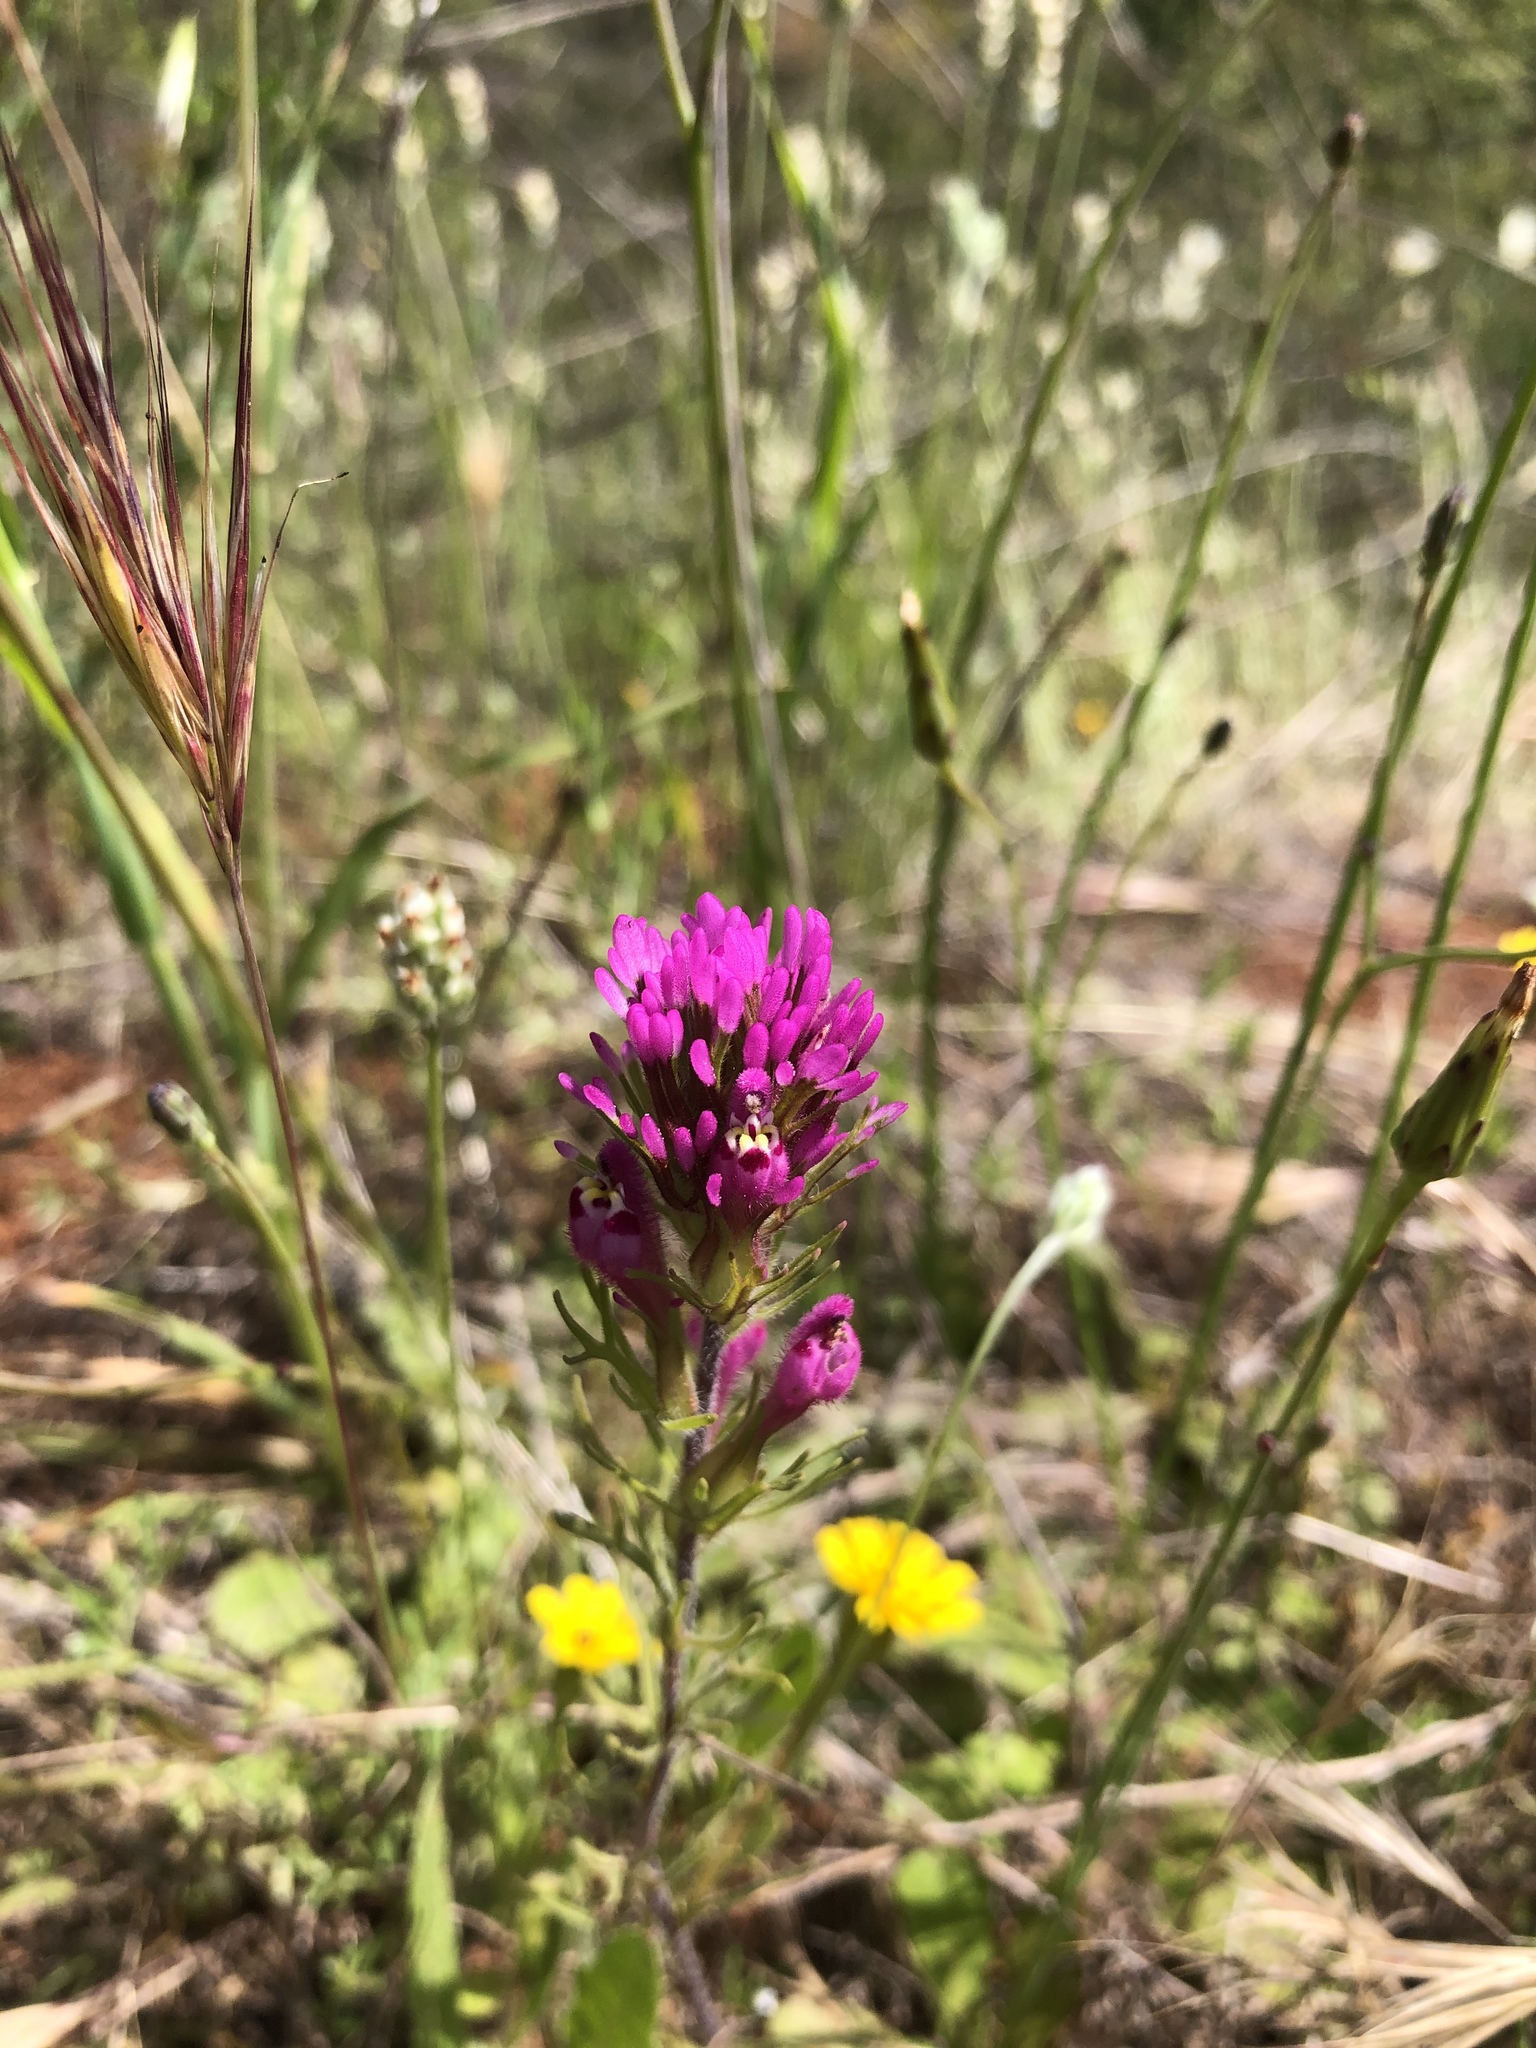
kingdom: Plantae
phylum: Tracheophyta
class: Magnoliopsida
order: Lamiales
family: Orobanchaceae
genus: Castilleja
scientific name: Castilleja exserta
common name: Purple owl-clover
